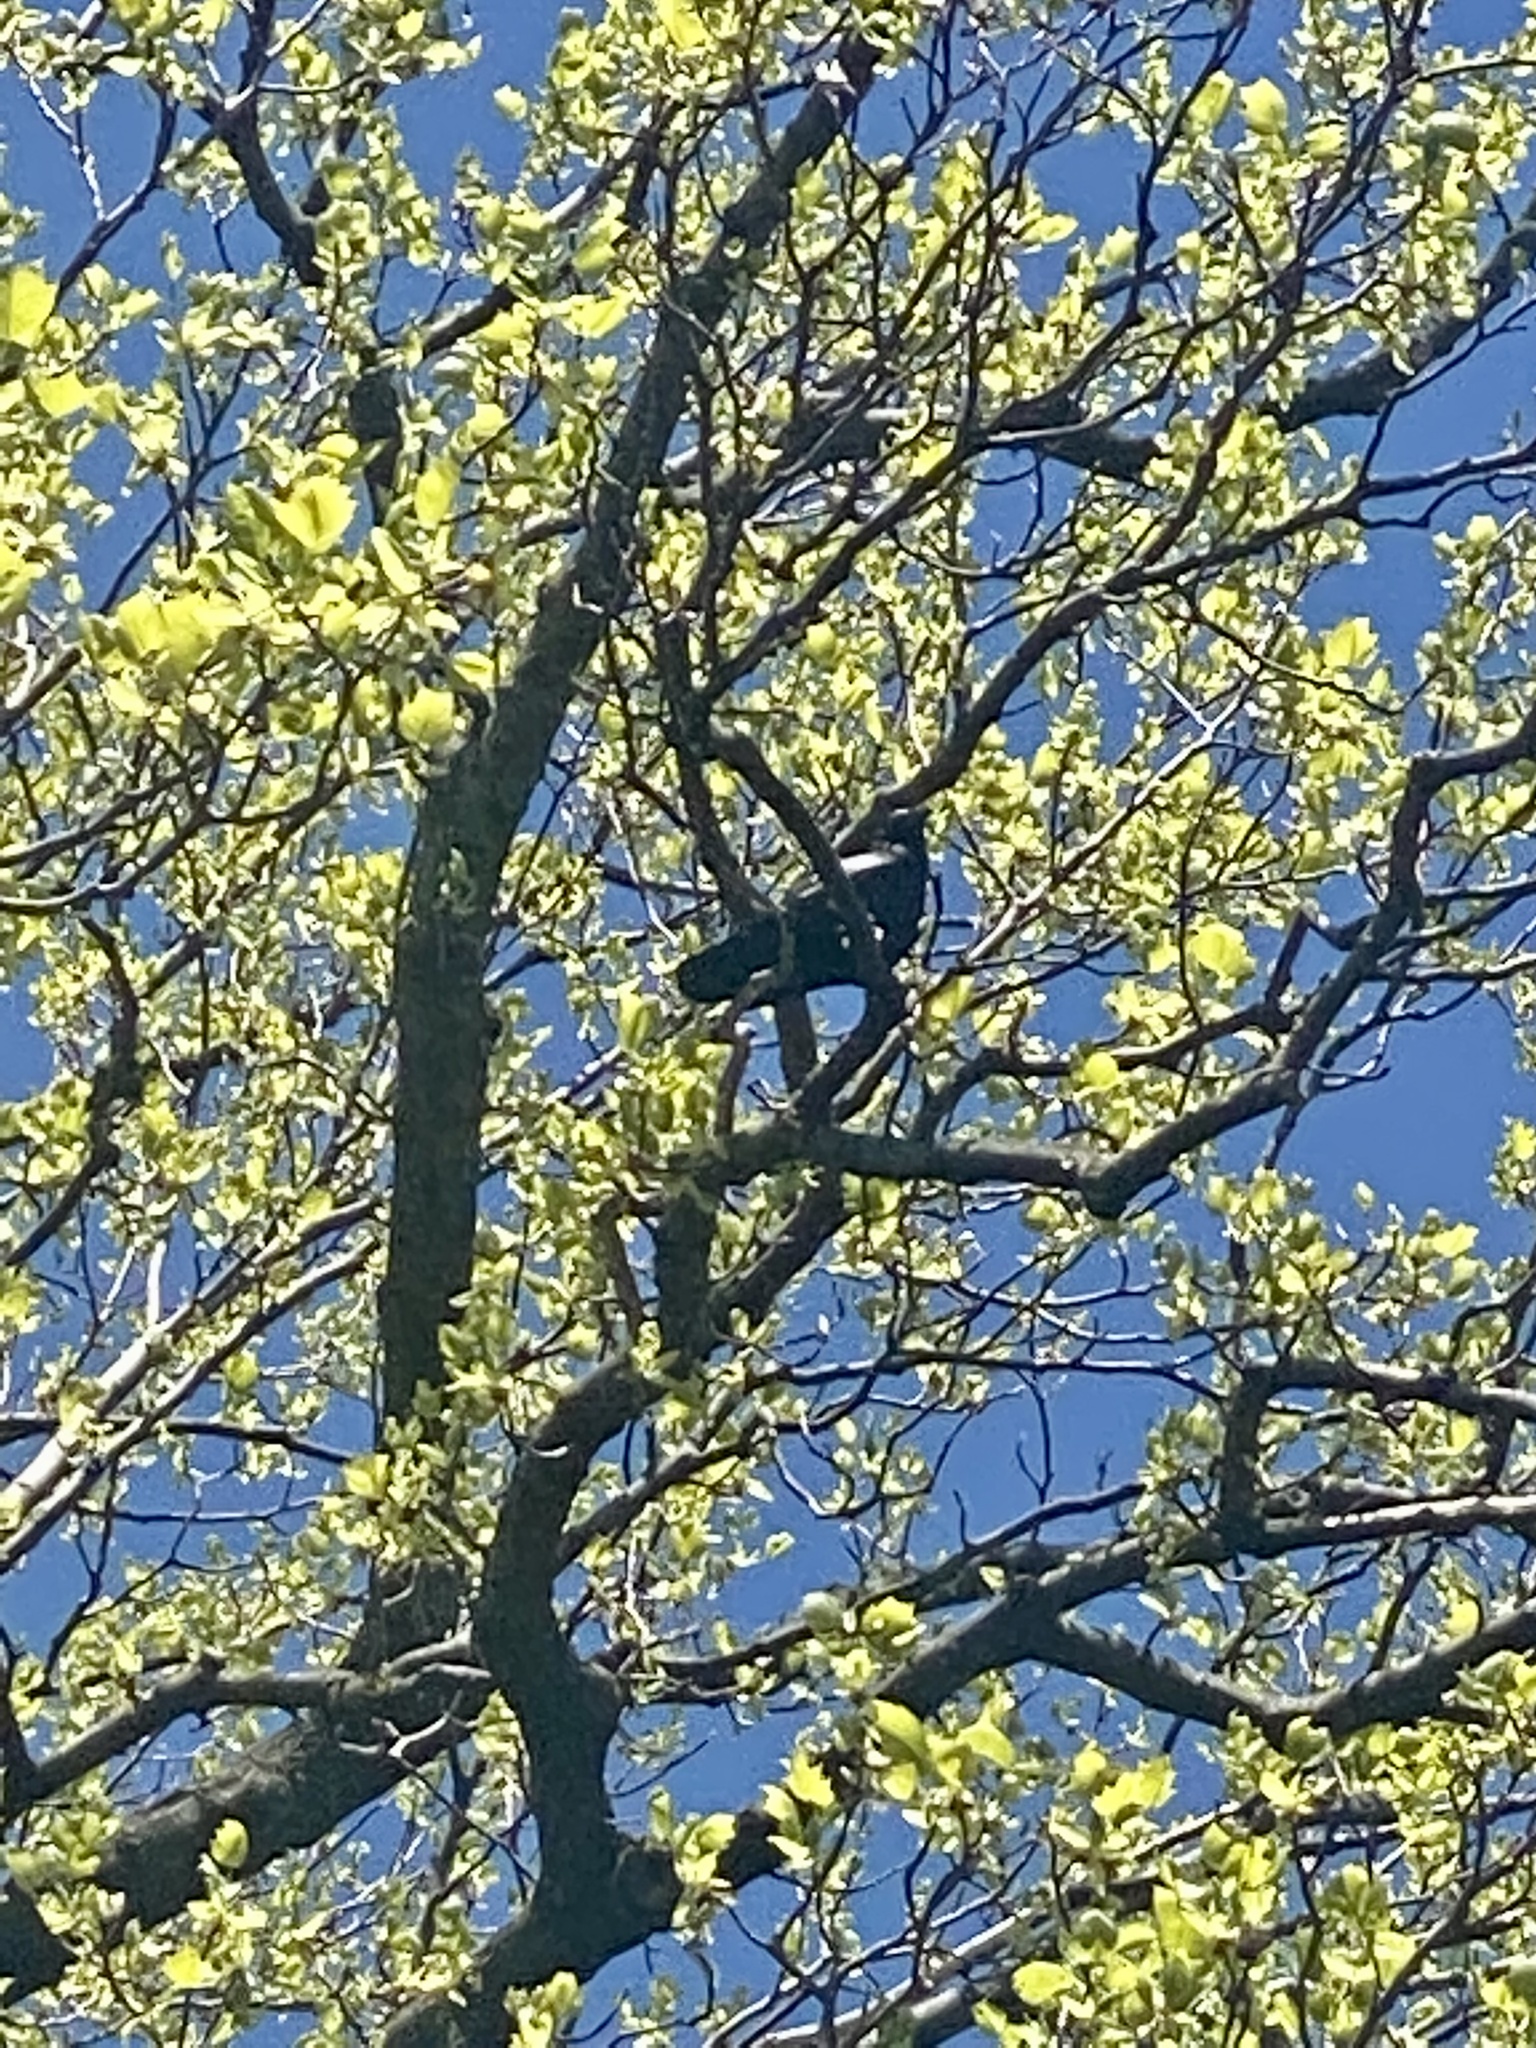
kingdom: Animalia
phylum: Chordata
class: Aves
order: Passeriformes
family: Corvidae
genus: Corvus
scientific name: Corvus ossifragus
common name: Fish crow
